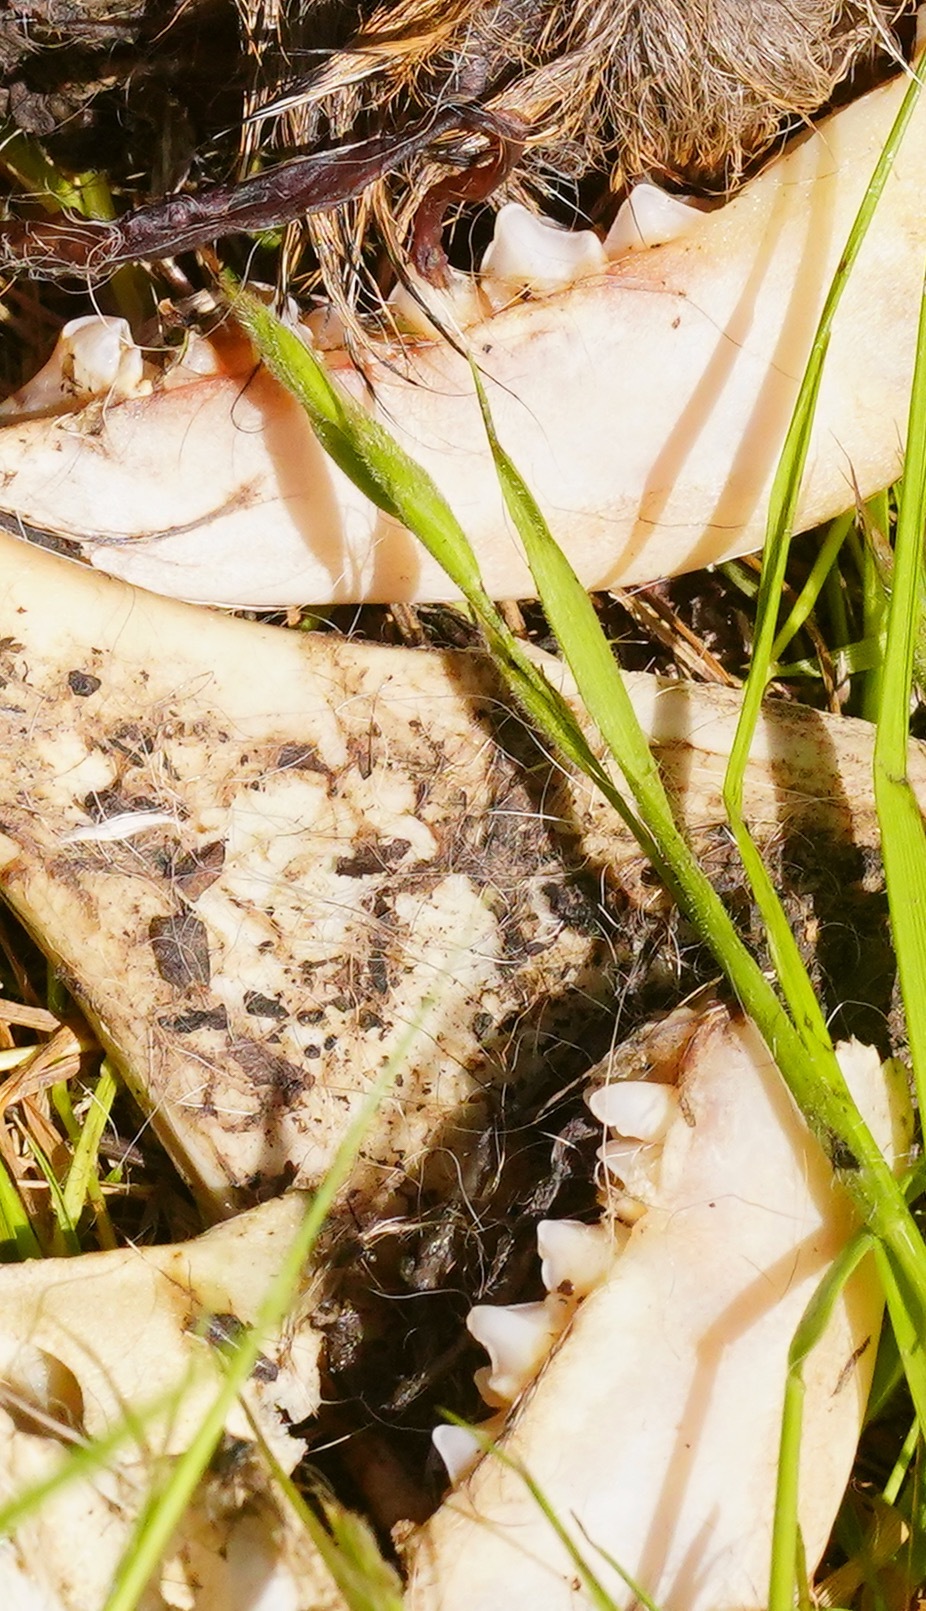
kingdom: Animalia
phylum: Chordata
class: Mammalia
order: Artiodactyla
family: Cervidae
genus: Odocoileus
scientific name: Odocoileus hemionus
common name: Mule deer
